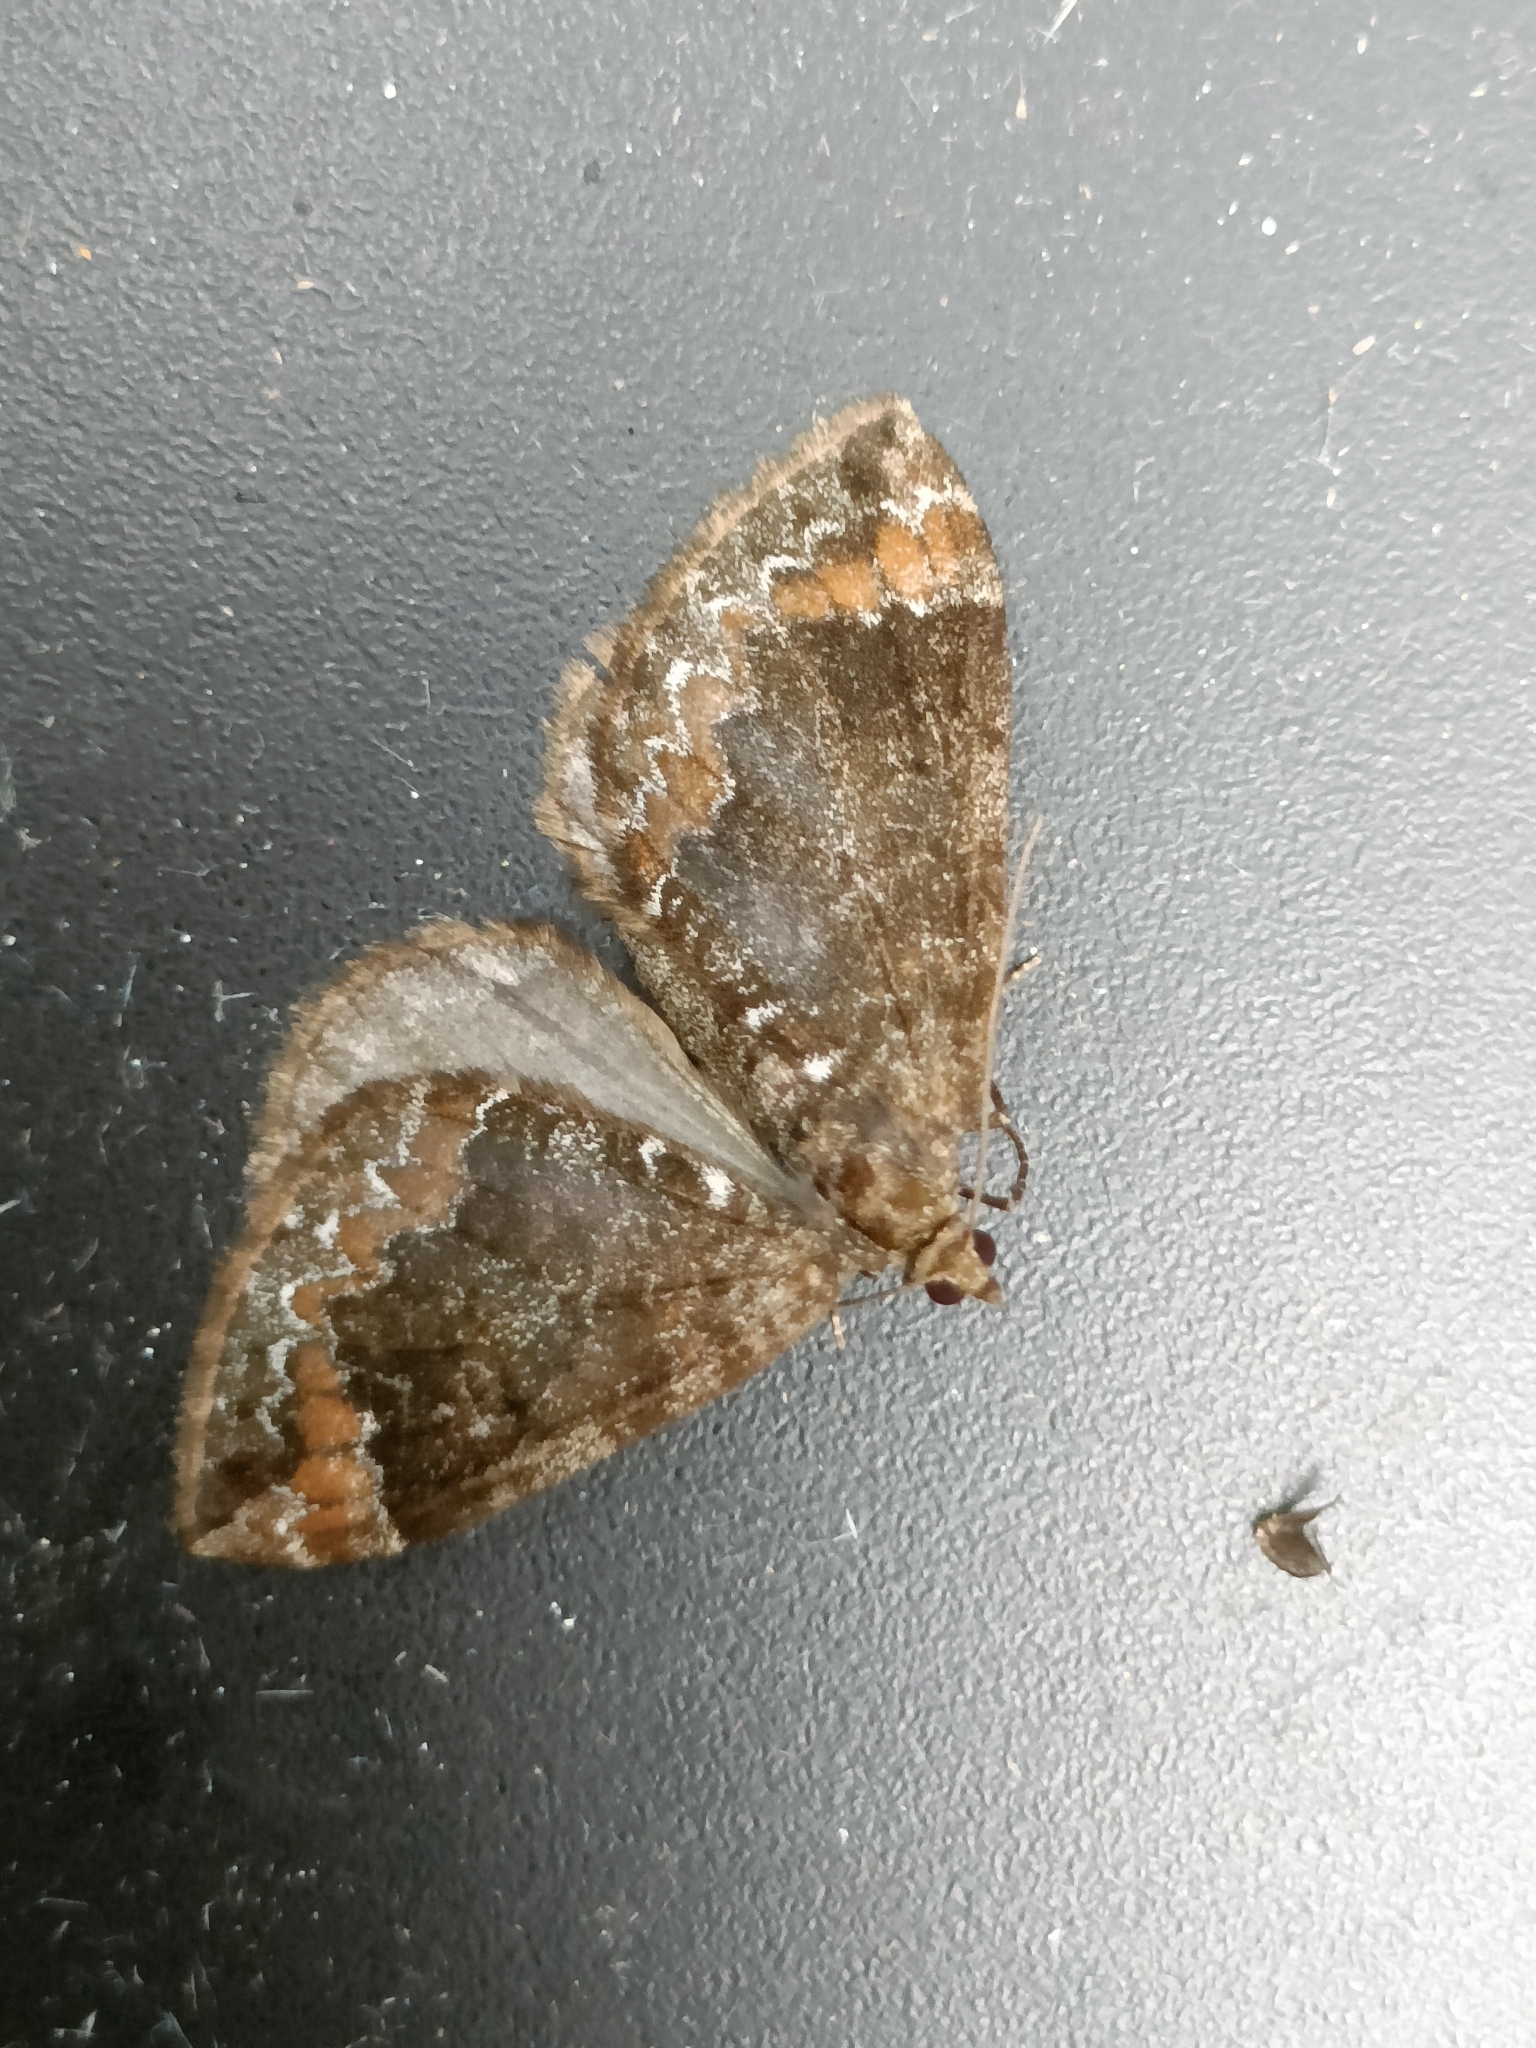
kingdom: Animalia
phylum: Arthropoda
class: Insecta
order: Lepidoptera
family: Geometridae
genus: Dysstroma
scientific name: Dysstroma truncata
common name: Common marbled carpet
